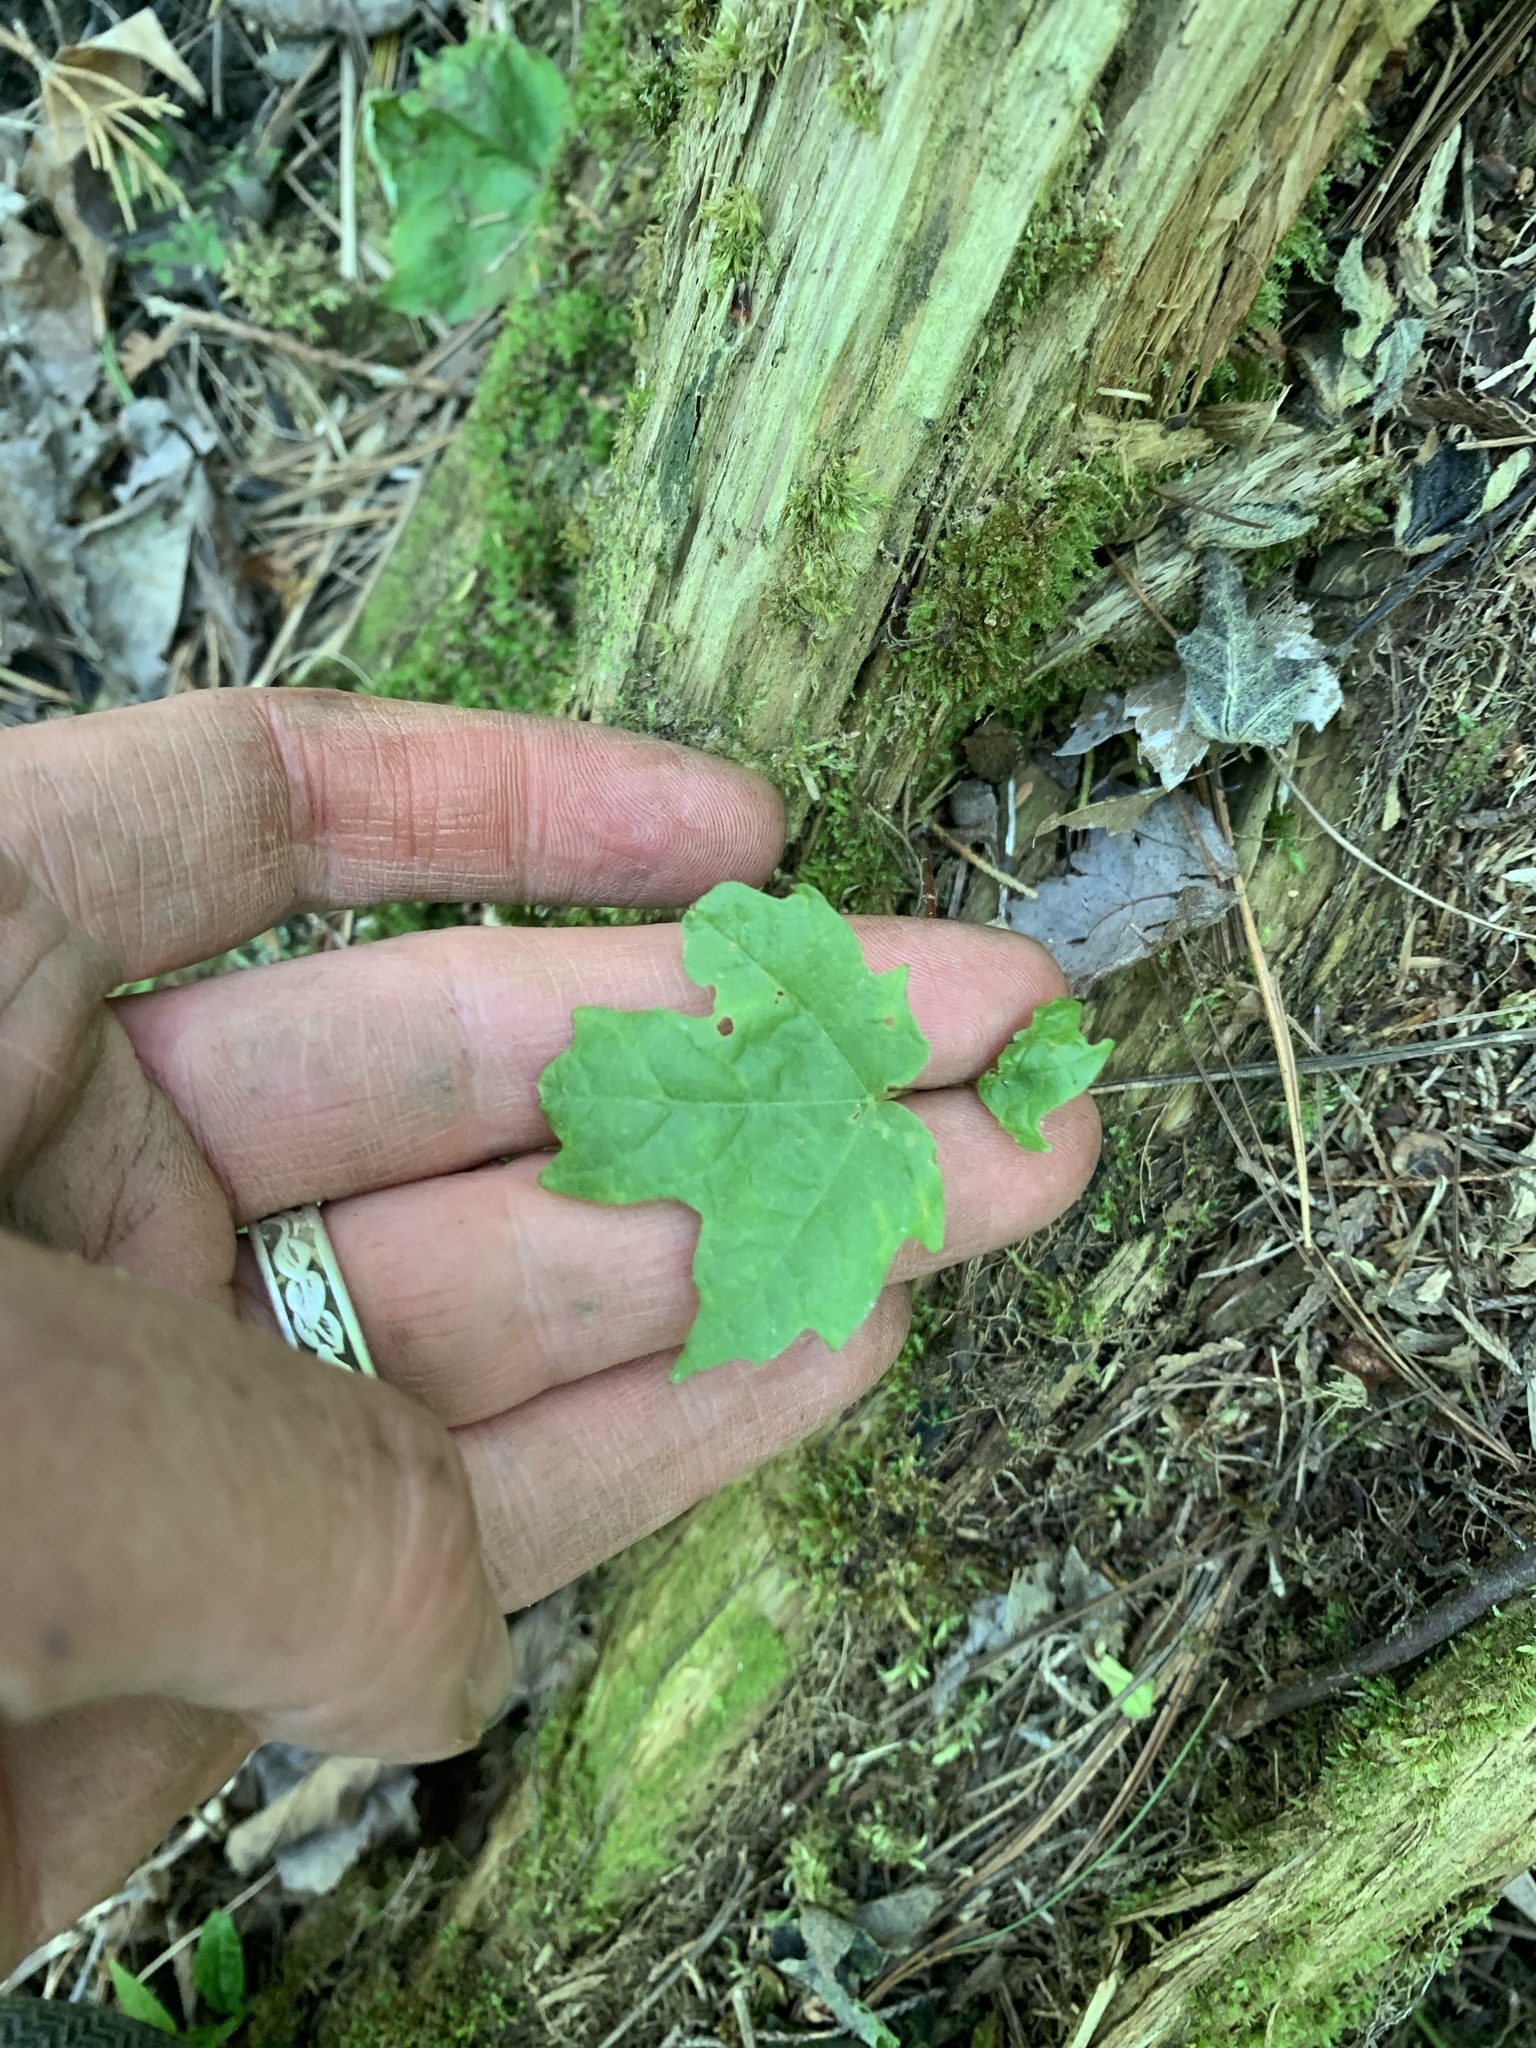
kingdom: Plantae
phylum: Tracheophyta
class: Magnoliopsida
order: Sapindales
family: Sapindaceae
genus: Acer
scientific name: Acer saccharum
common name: Sugar maple
